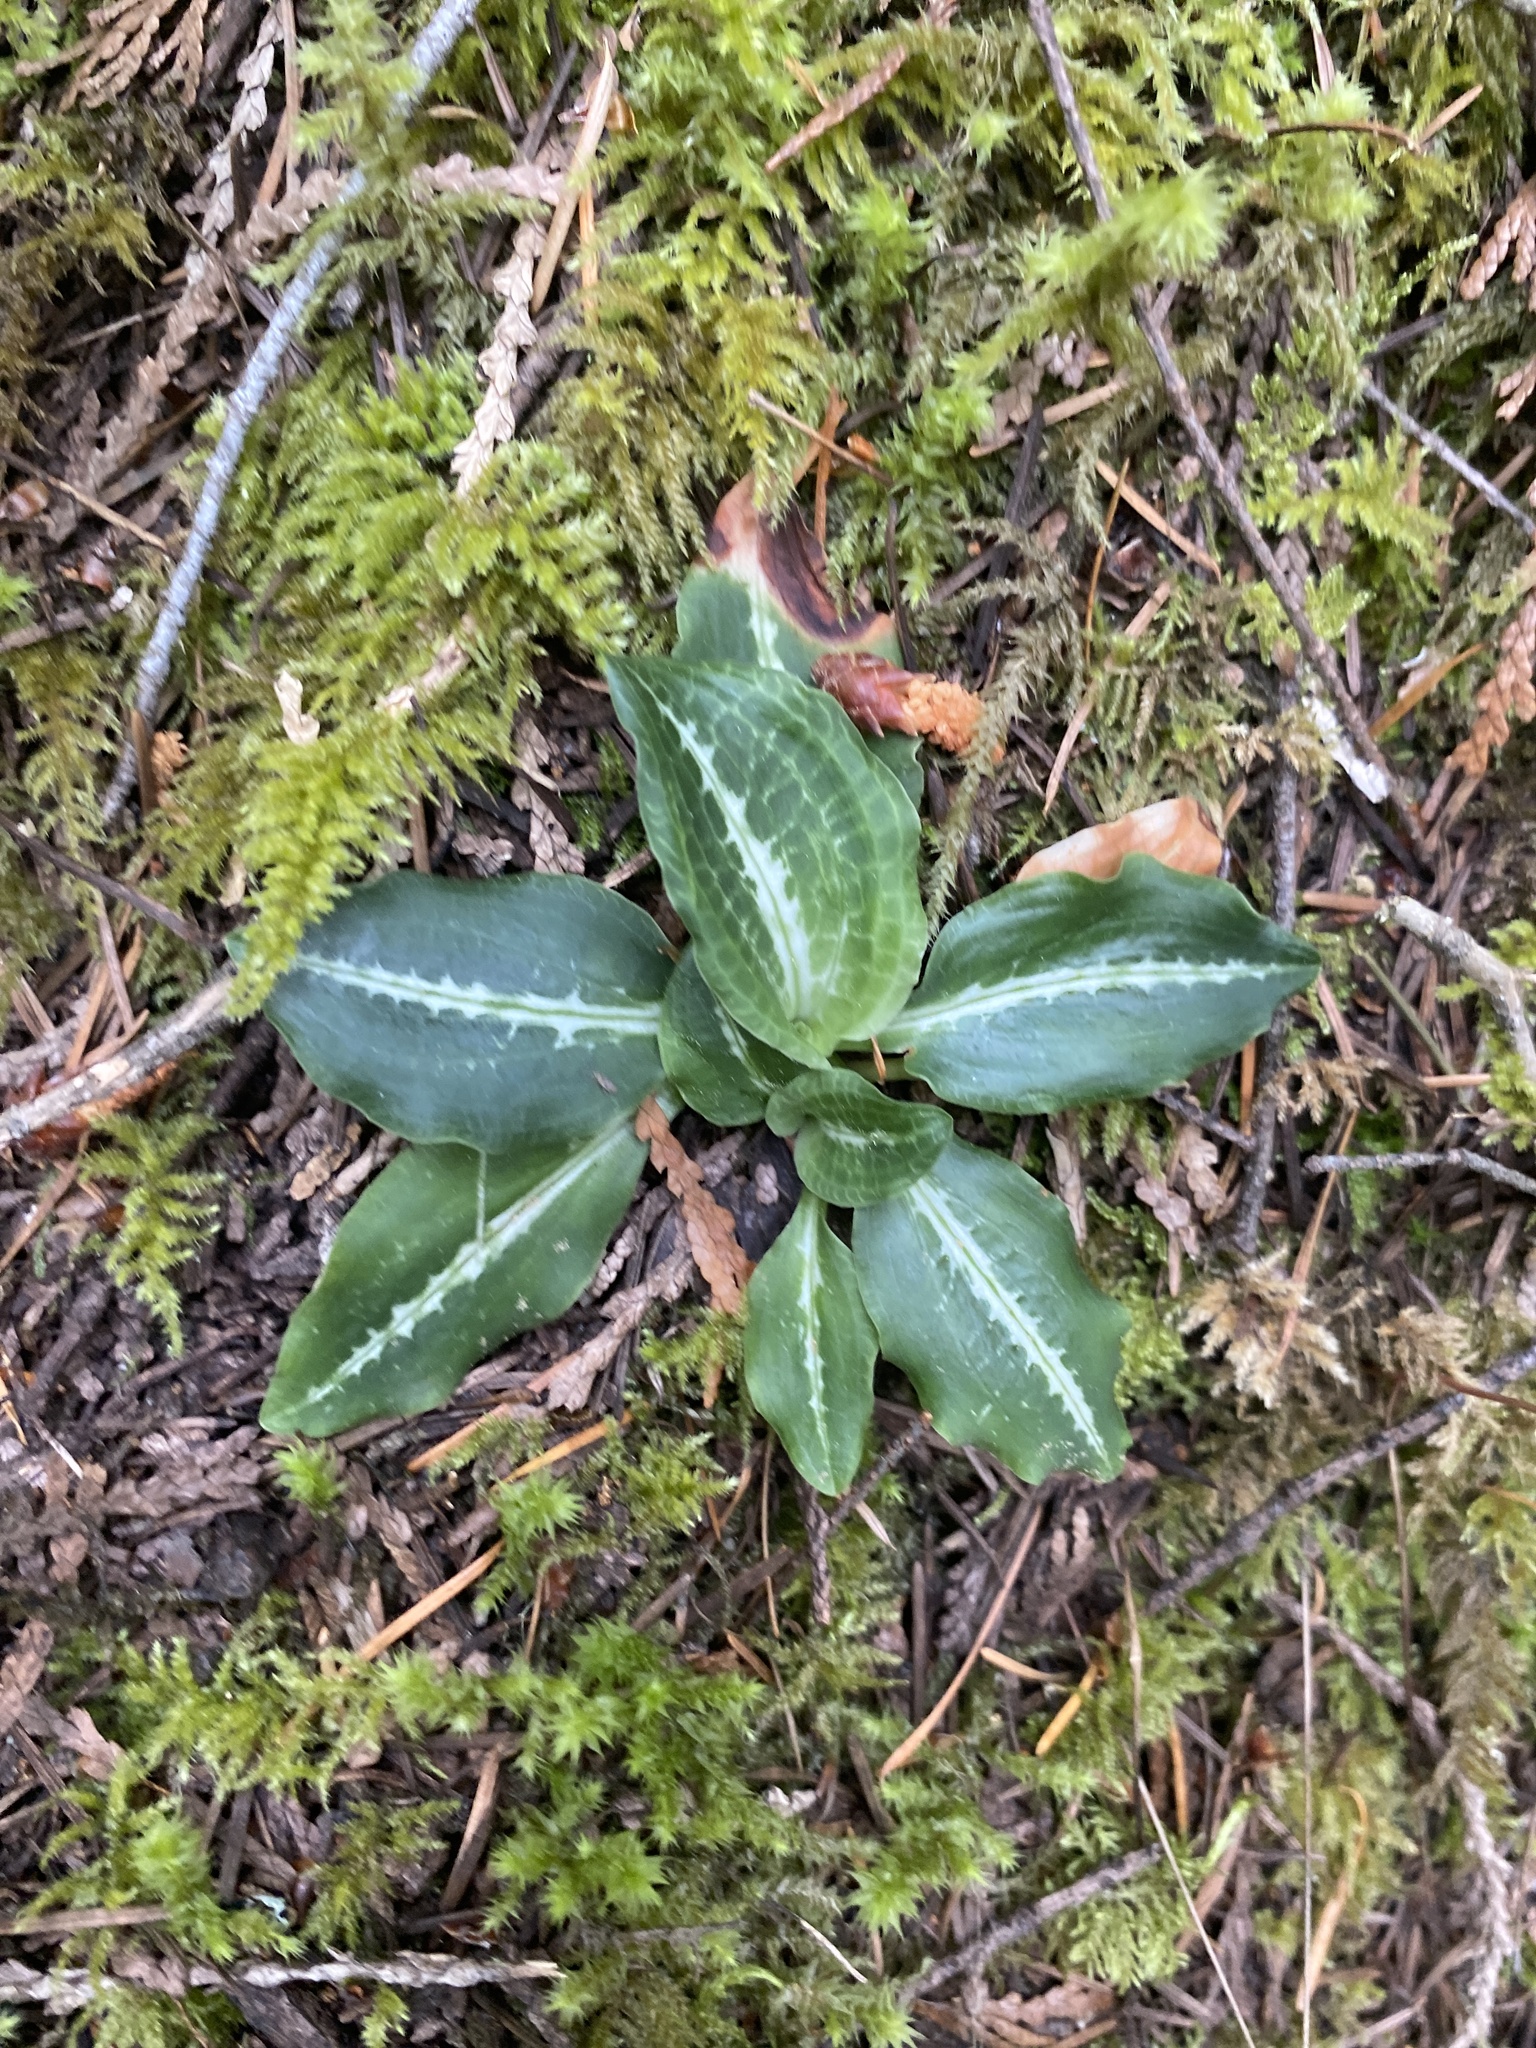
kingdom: Plantae
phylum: Tracheophyta
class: Liliopsida
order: Asparagales
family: Orchidaceae
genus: Goodyera
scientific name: Goodyera oblongifolia
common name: Giant rattlesnake-plantain
